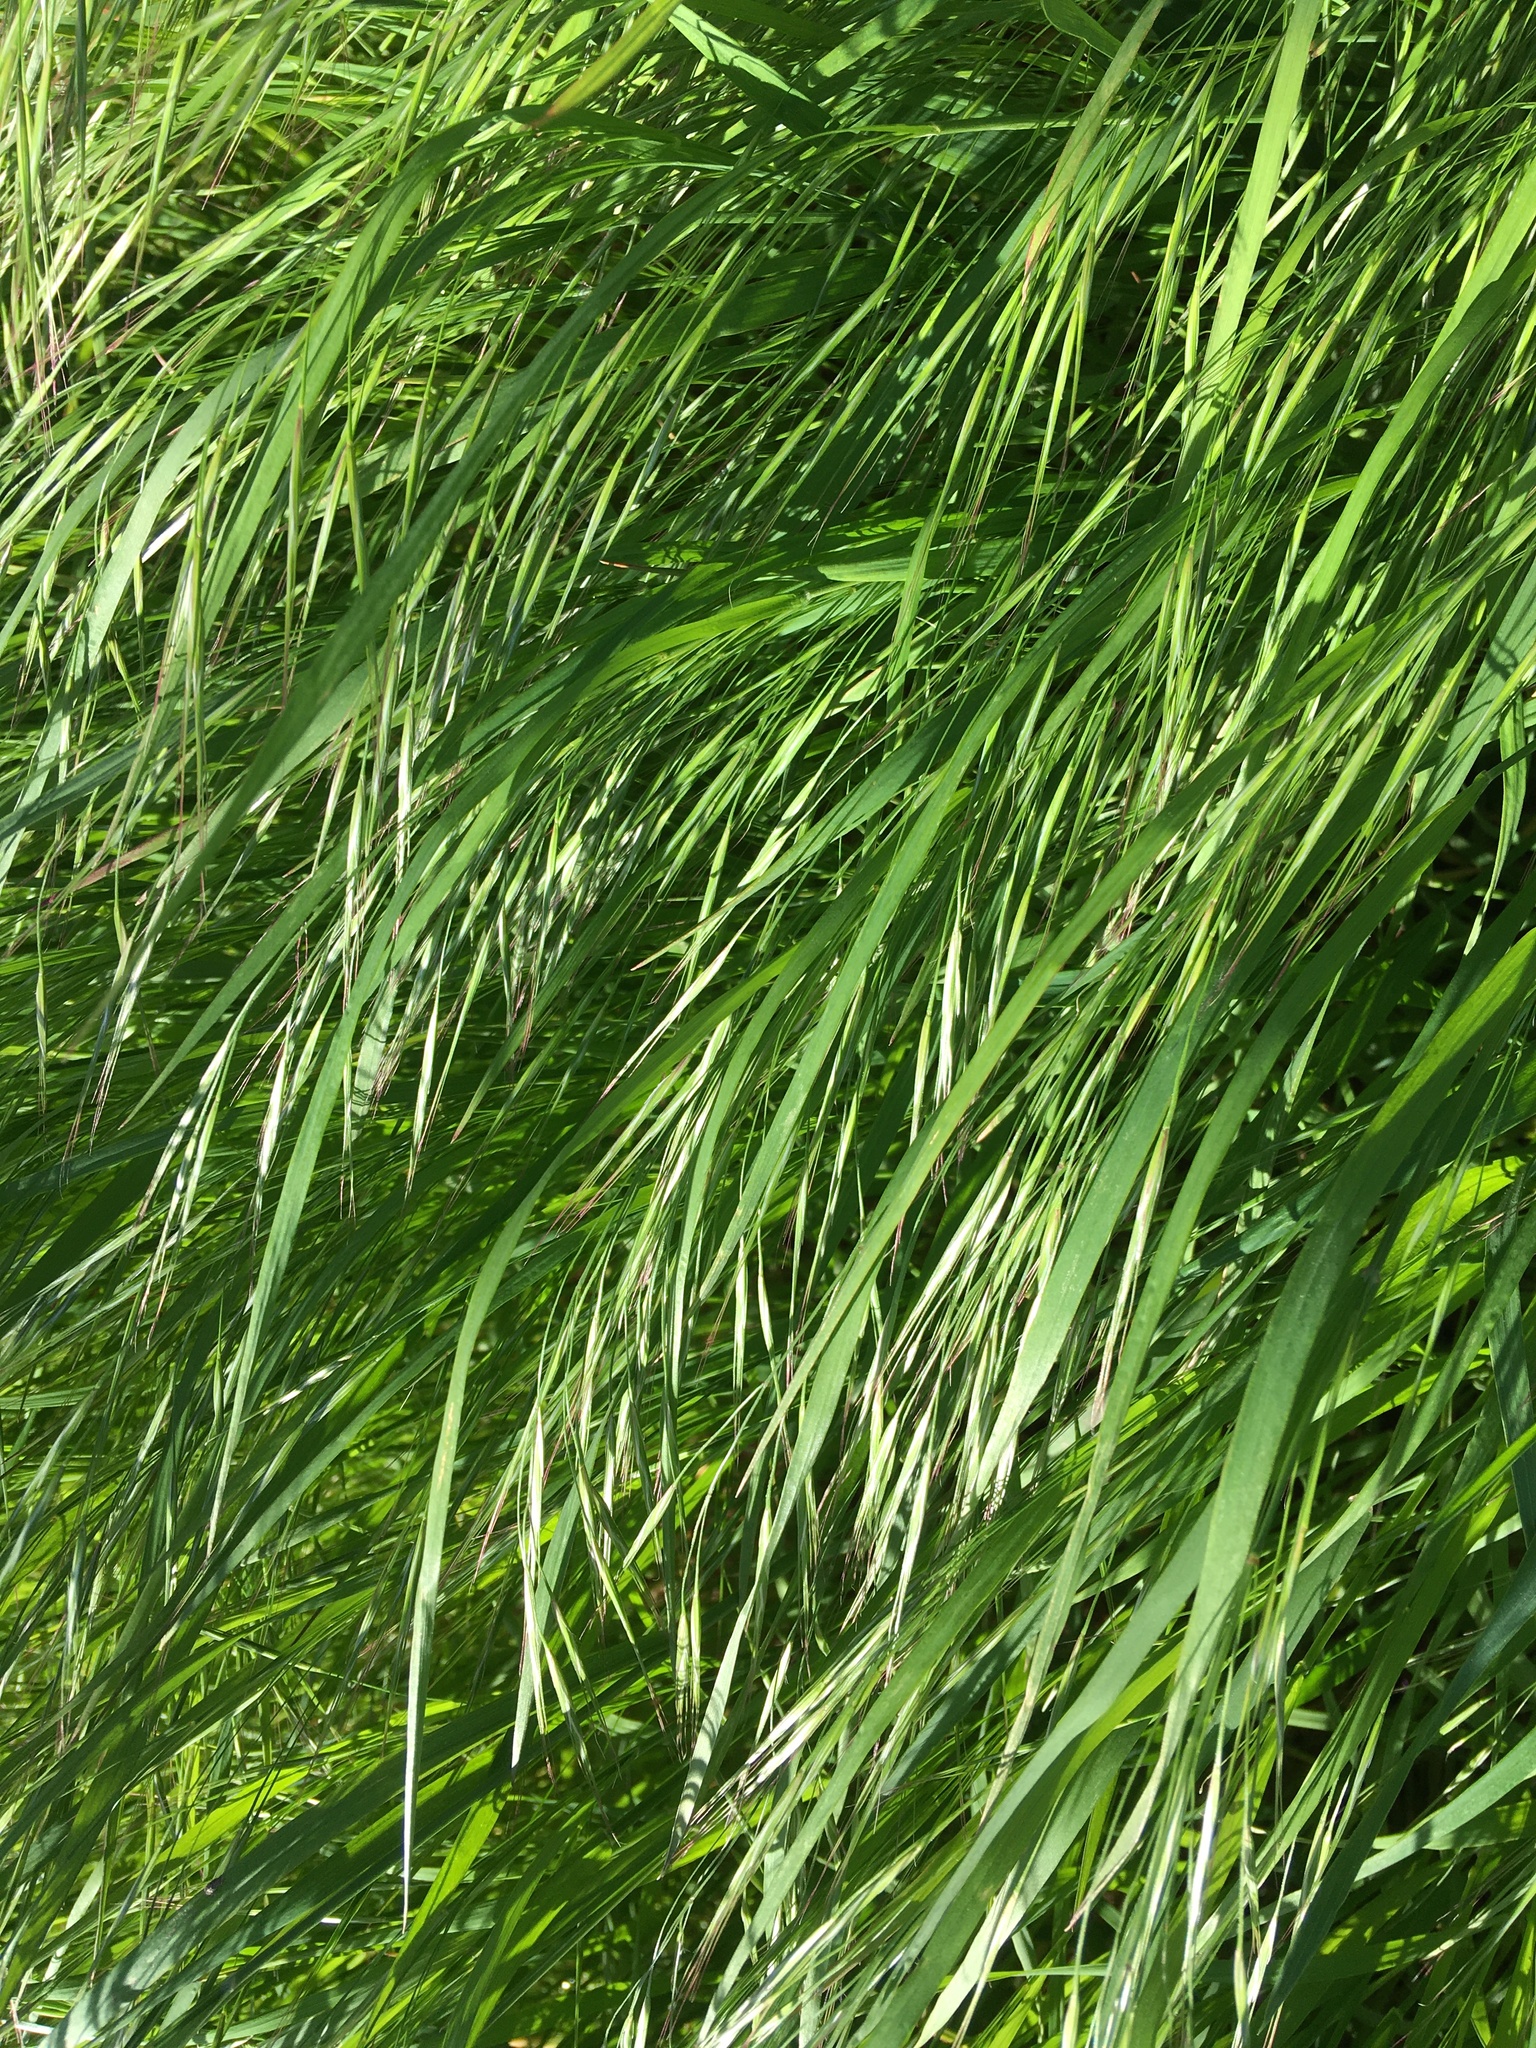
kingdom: Plantae
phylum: Tracheophyta
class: Liliopsida
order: Poales
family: Poaceae
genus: Bromus
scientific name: Bromus inermis
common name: Smooth brome
